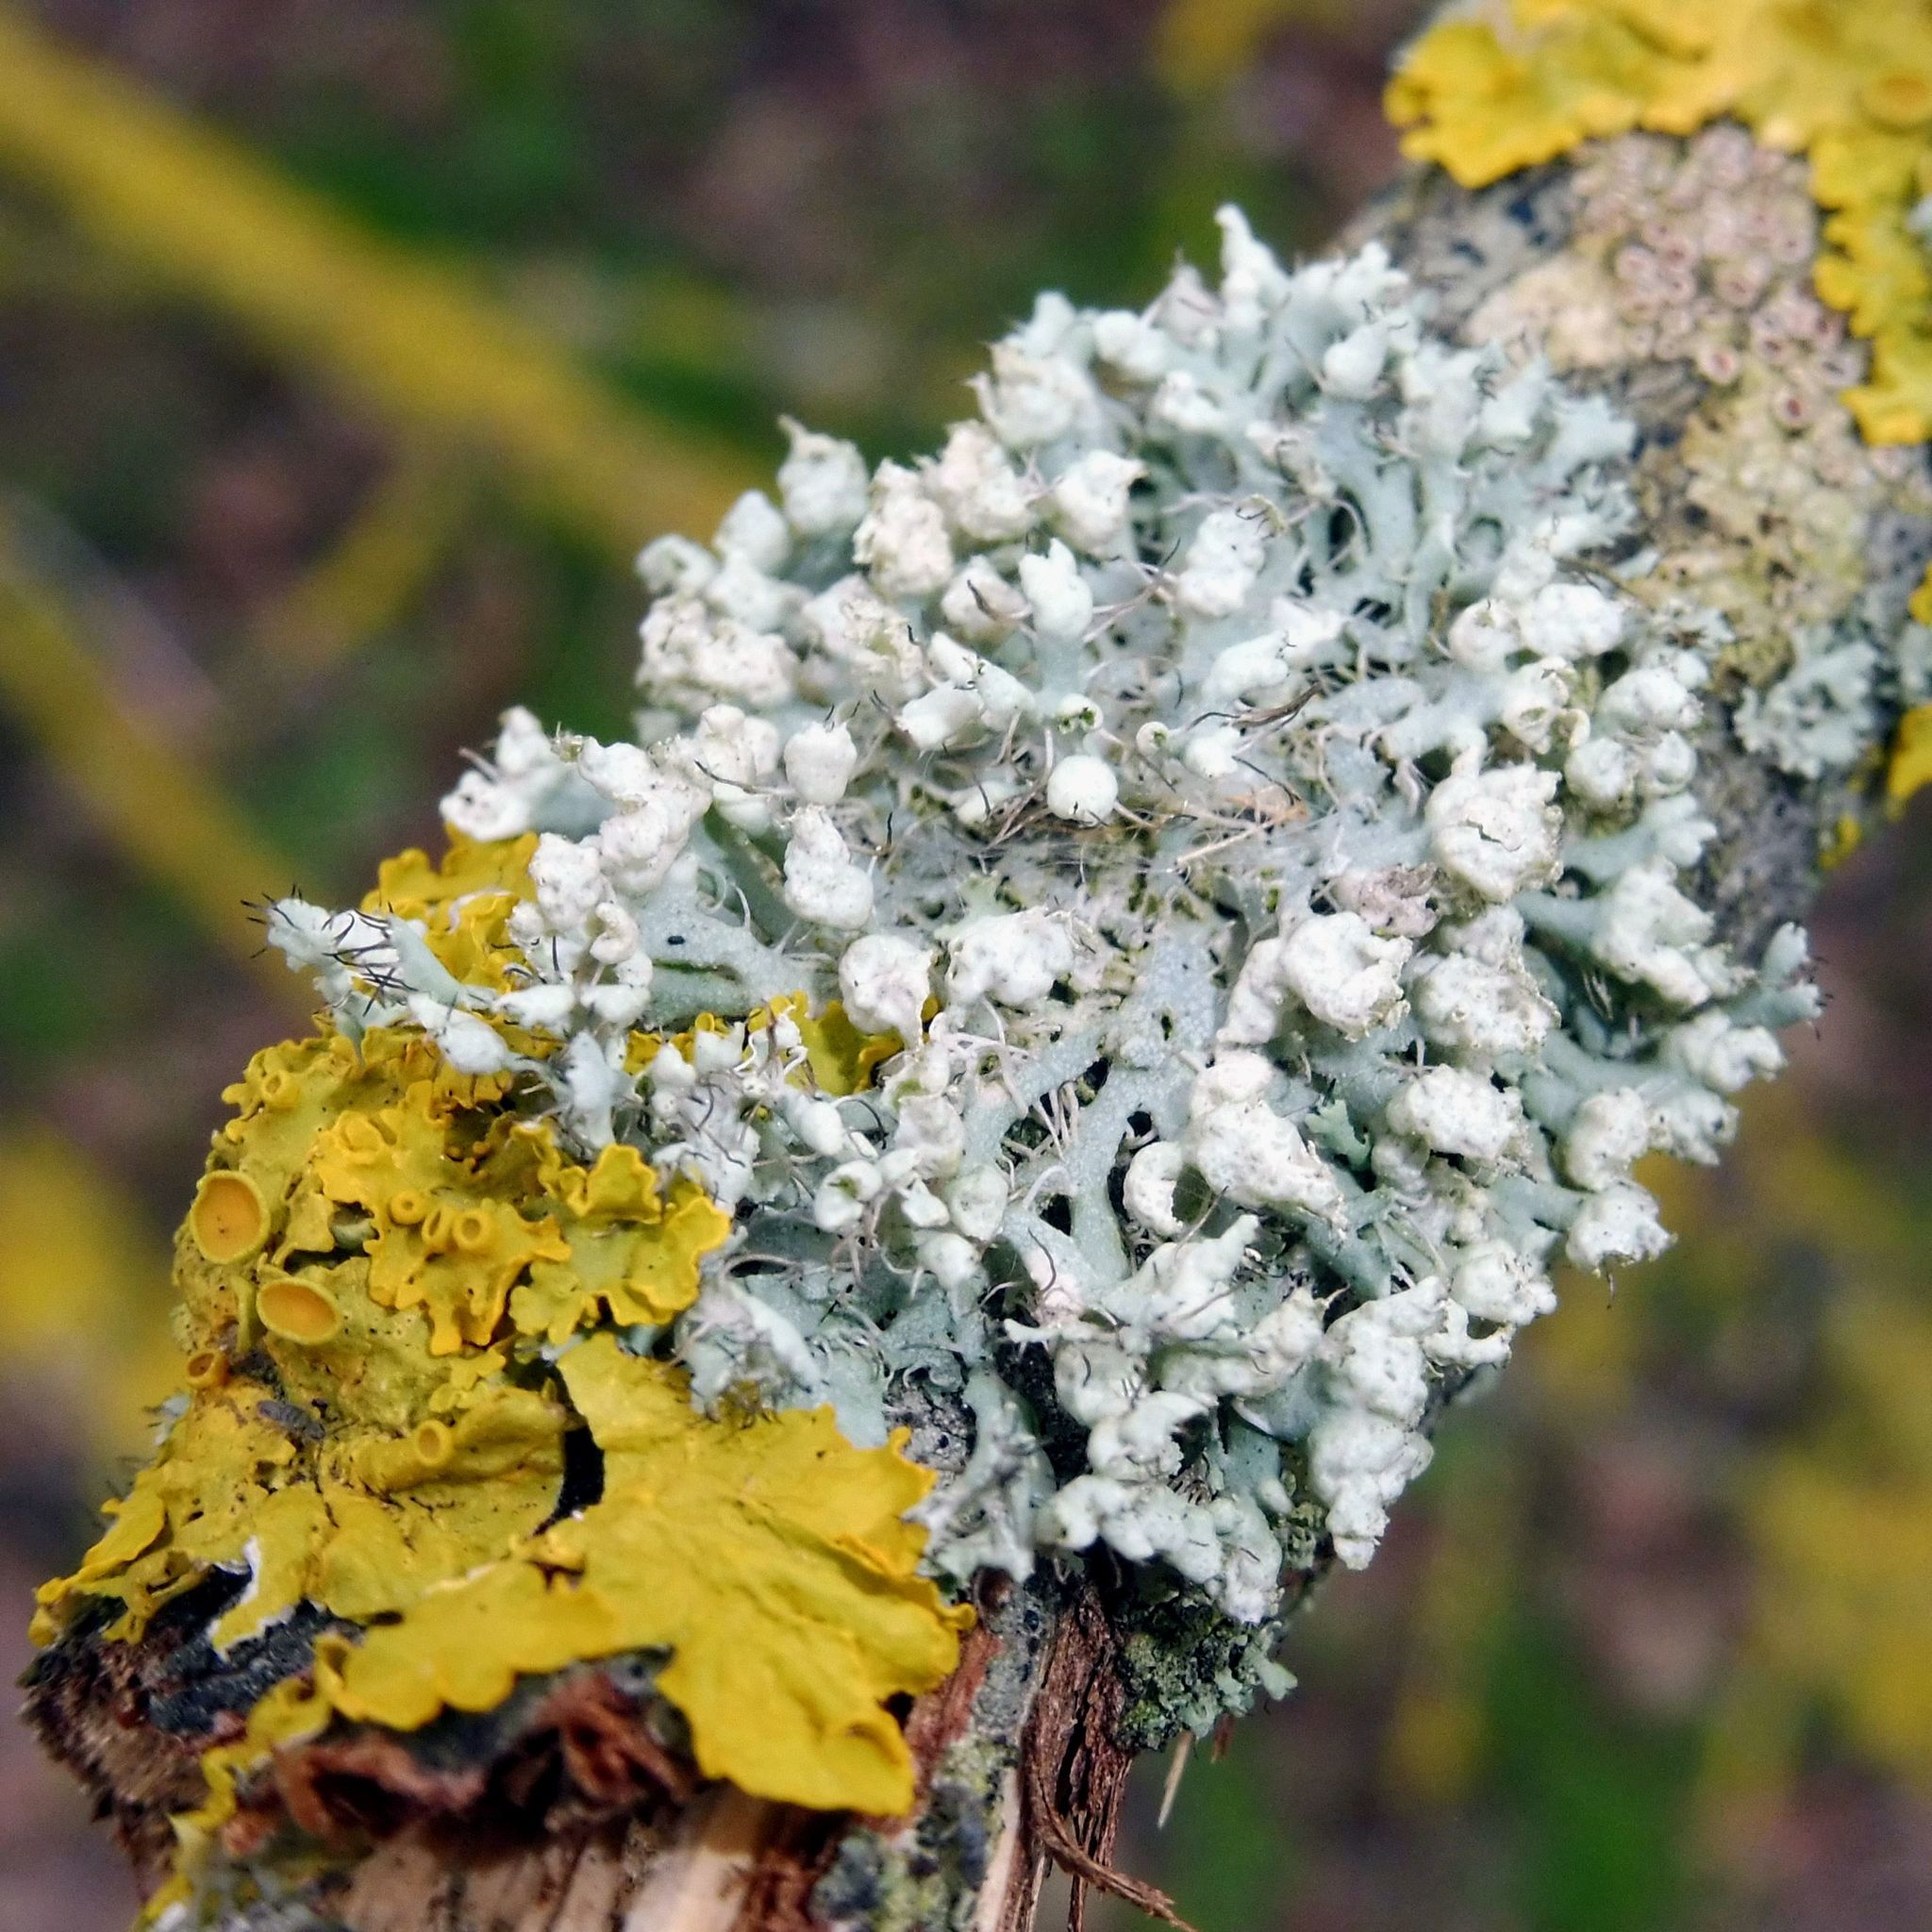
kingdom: Fungi
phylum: Ascomycota
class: Lecanoromycetes
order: Caliciales
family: Physciaceae
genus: Physcia
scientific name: Physcia adscendens
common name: Hooded rosette lichen
